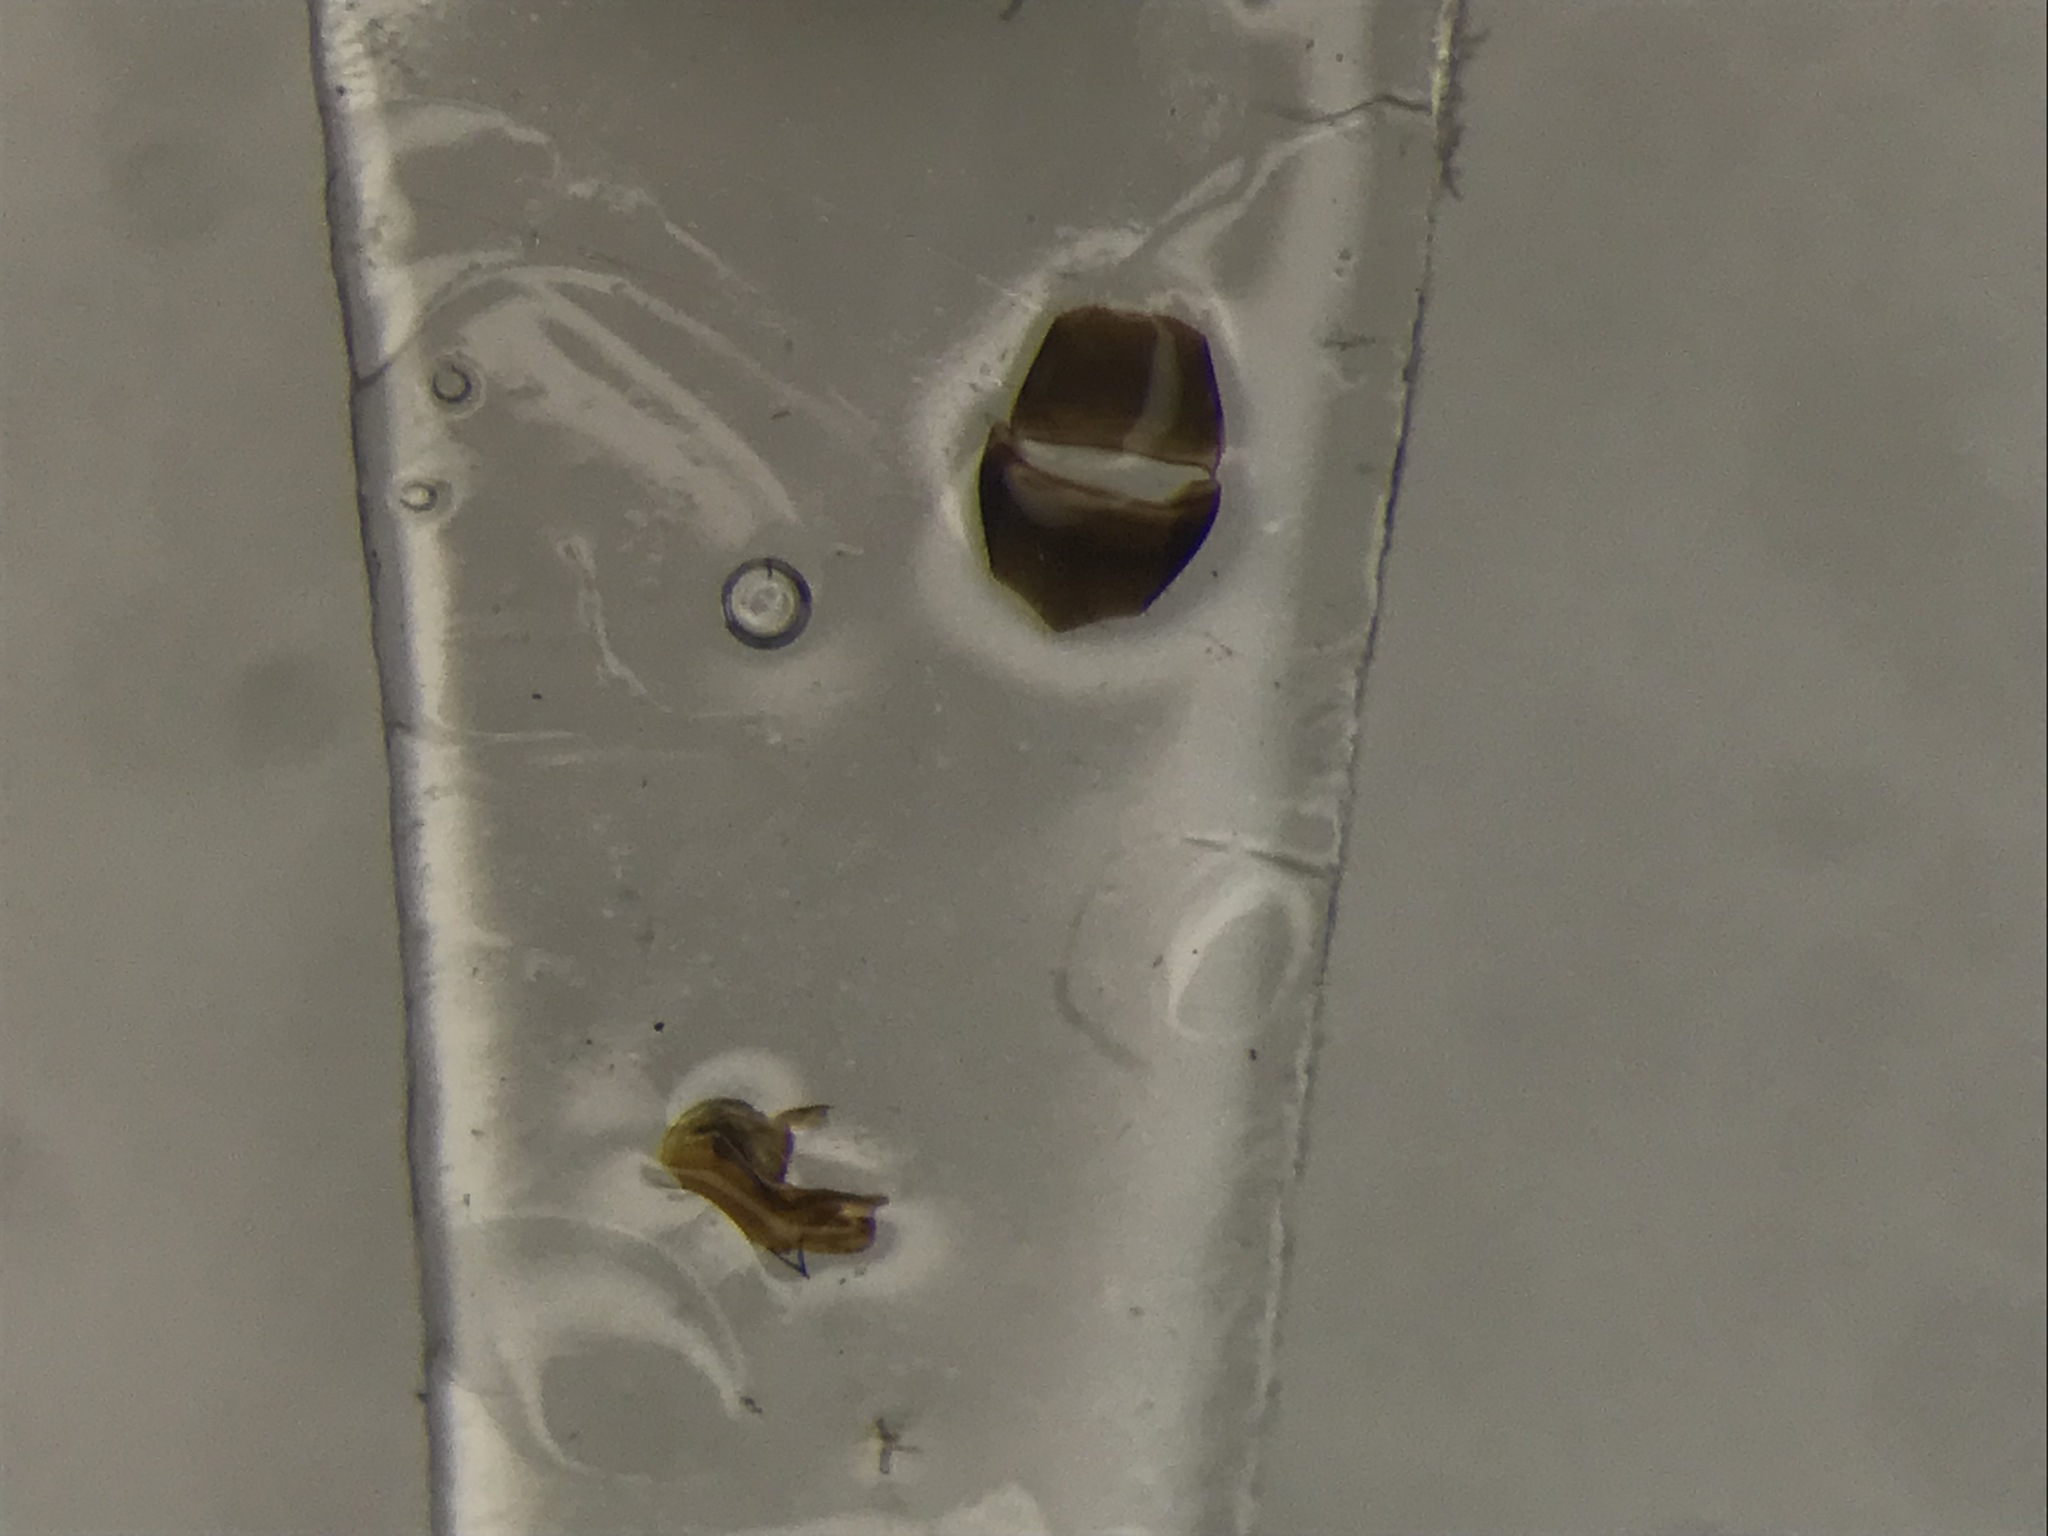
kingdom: Animalia
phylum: Arthropoda
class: Insecta
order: Coleoptera
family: Staphylinidae
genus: Leptusa
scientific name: Leptusa opaca
